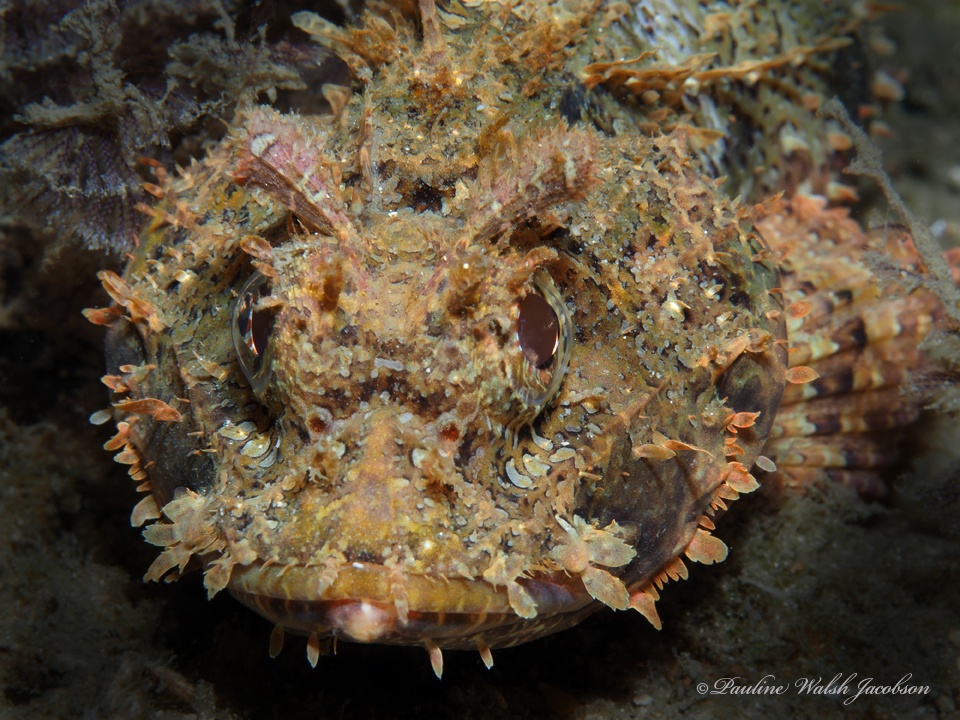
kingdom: Animalia
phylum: Chordata
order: Scorpaeniformes
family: Scorpaenidae
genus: Scorpaena
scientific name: Scorpaena plumieri
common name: Spotted scorpionfish
